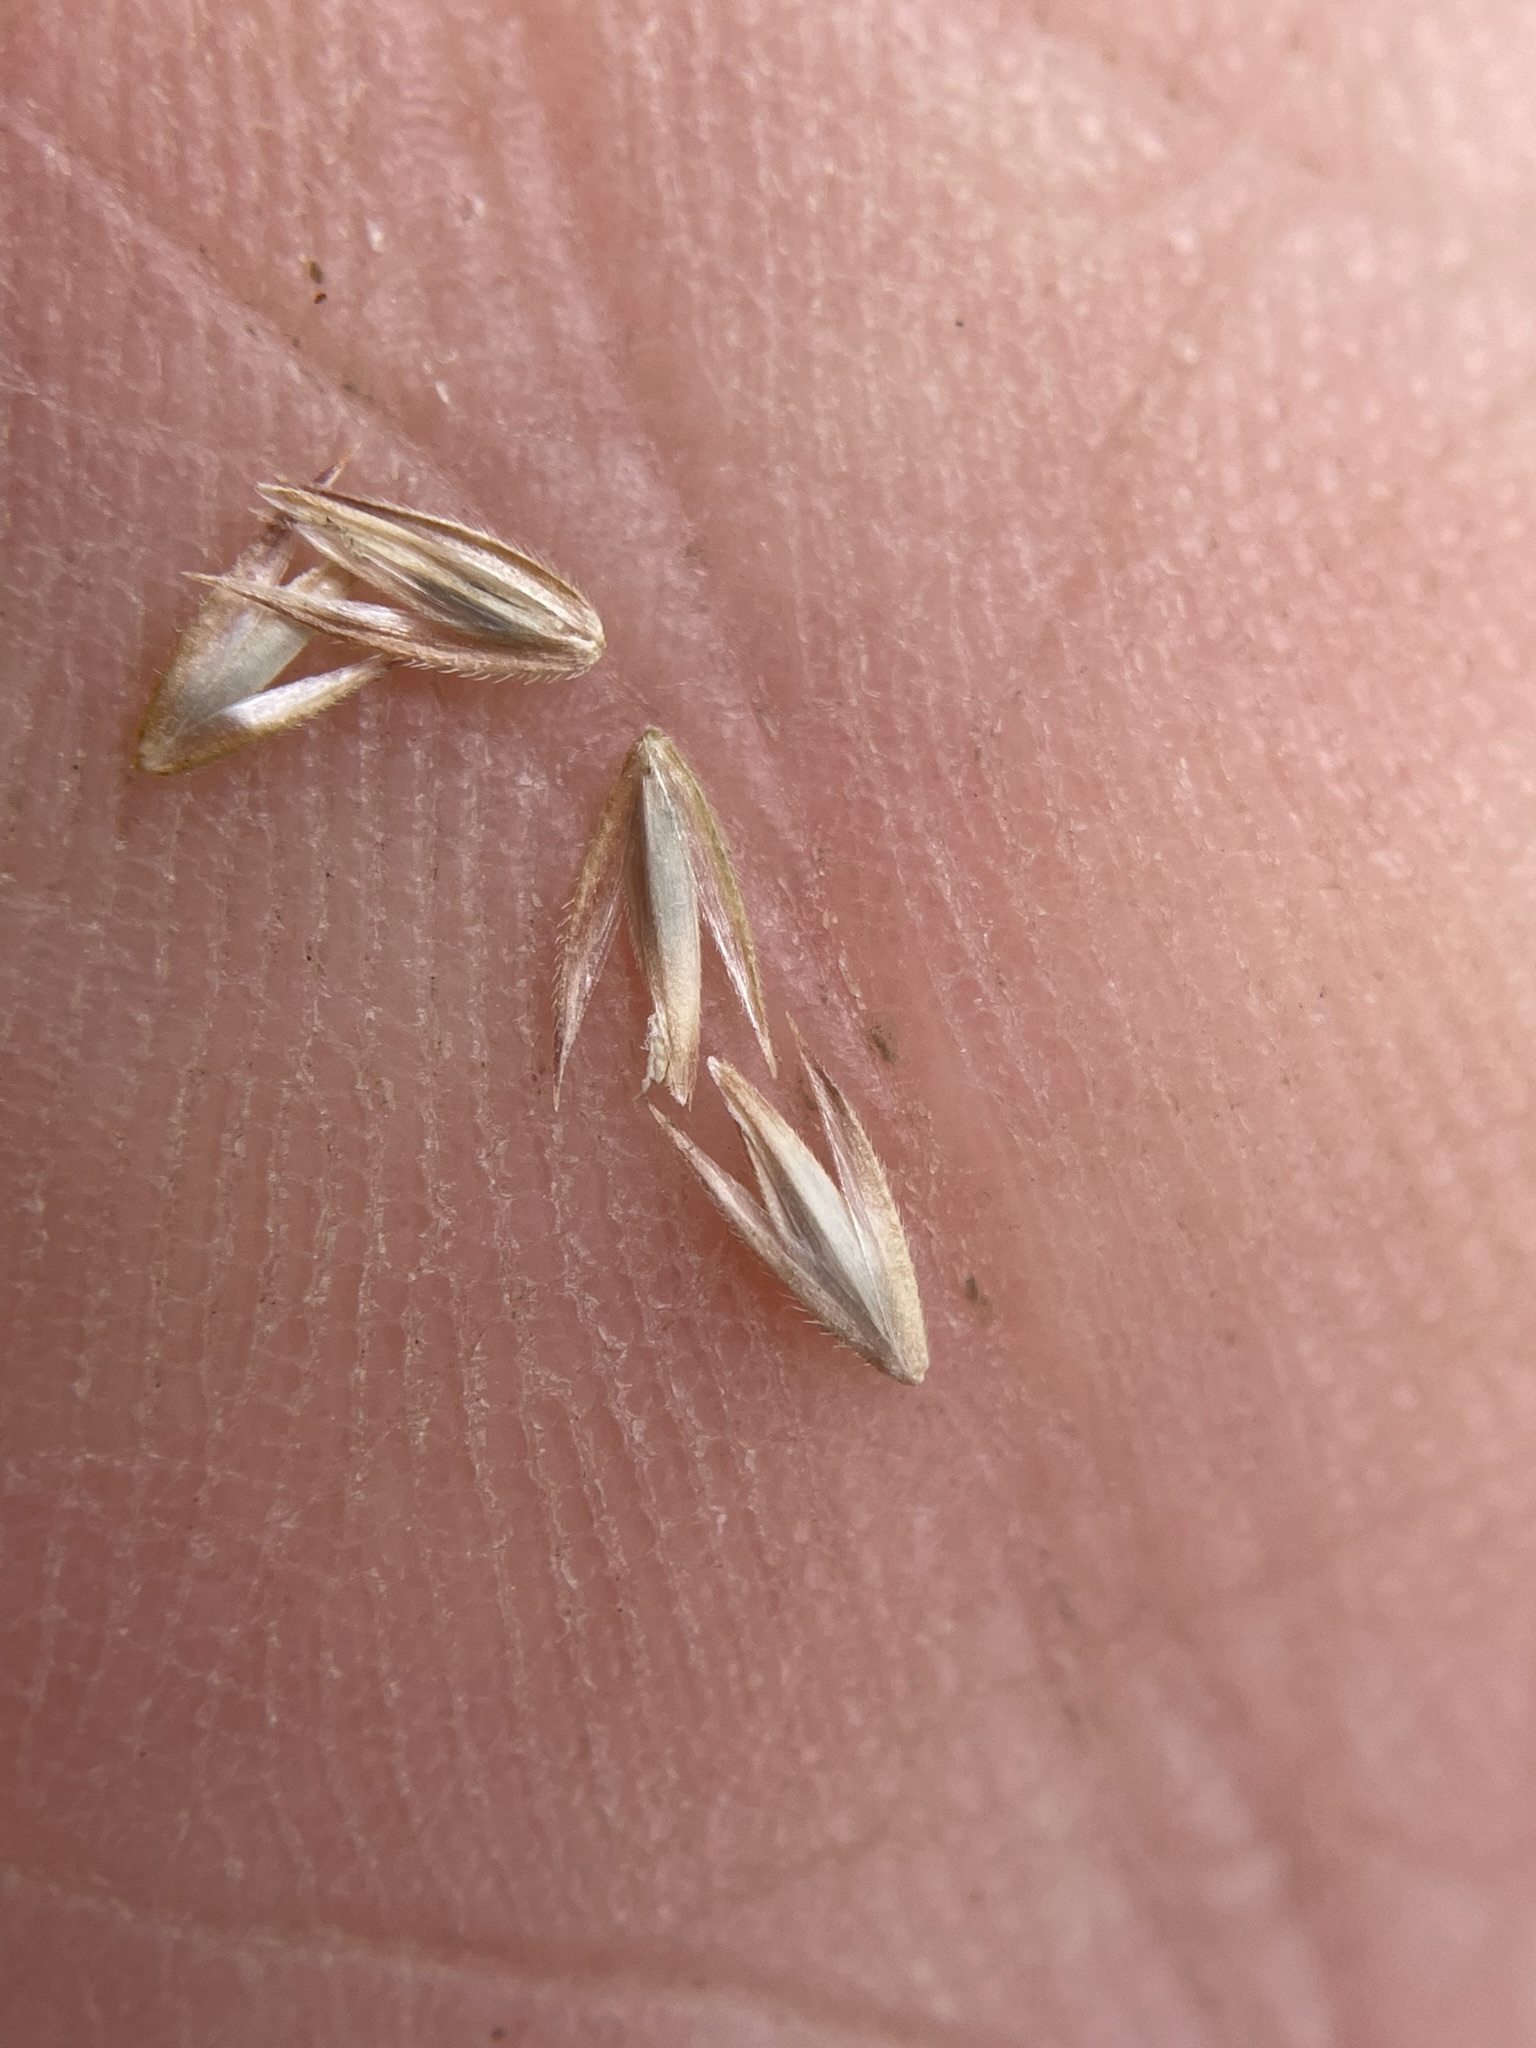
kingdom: Plantae
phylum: Tracheophyta
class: Liliopsida
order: Poales
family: Poaceae
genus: Cinna
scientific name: Cinna latifolia
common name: Drooping woodreed
